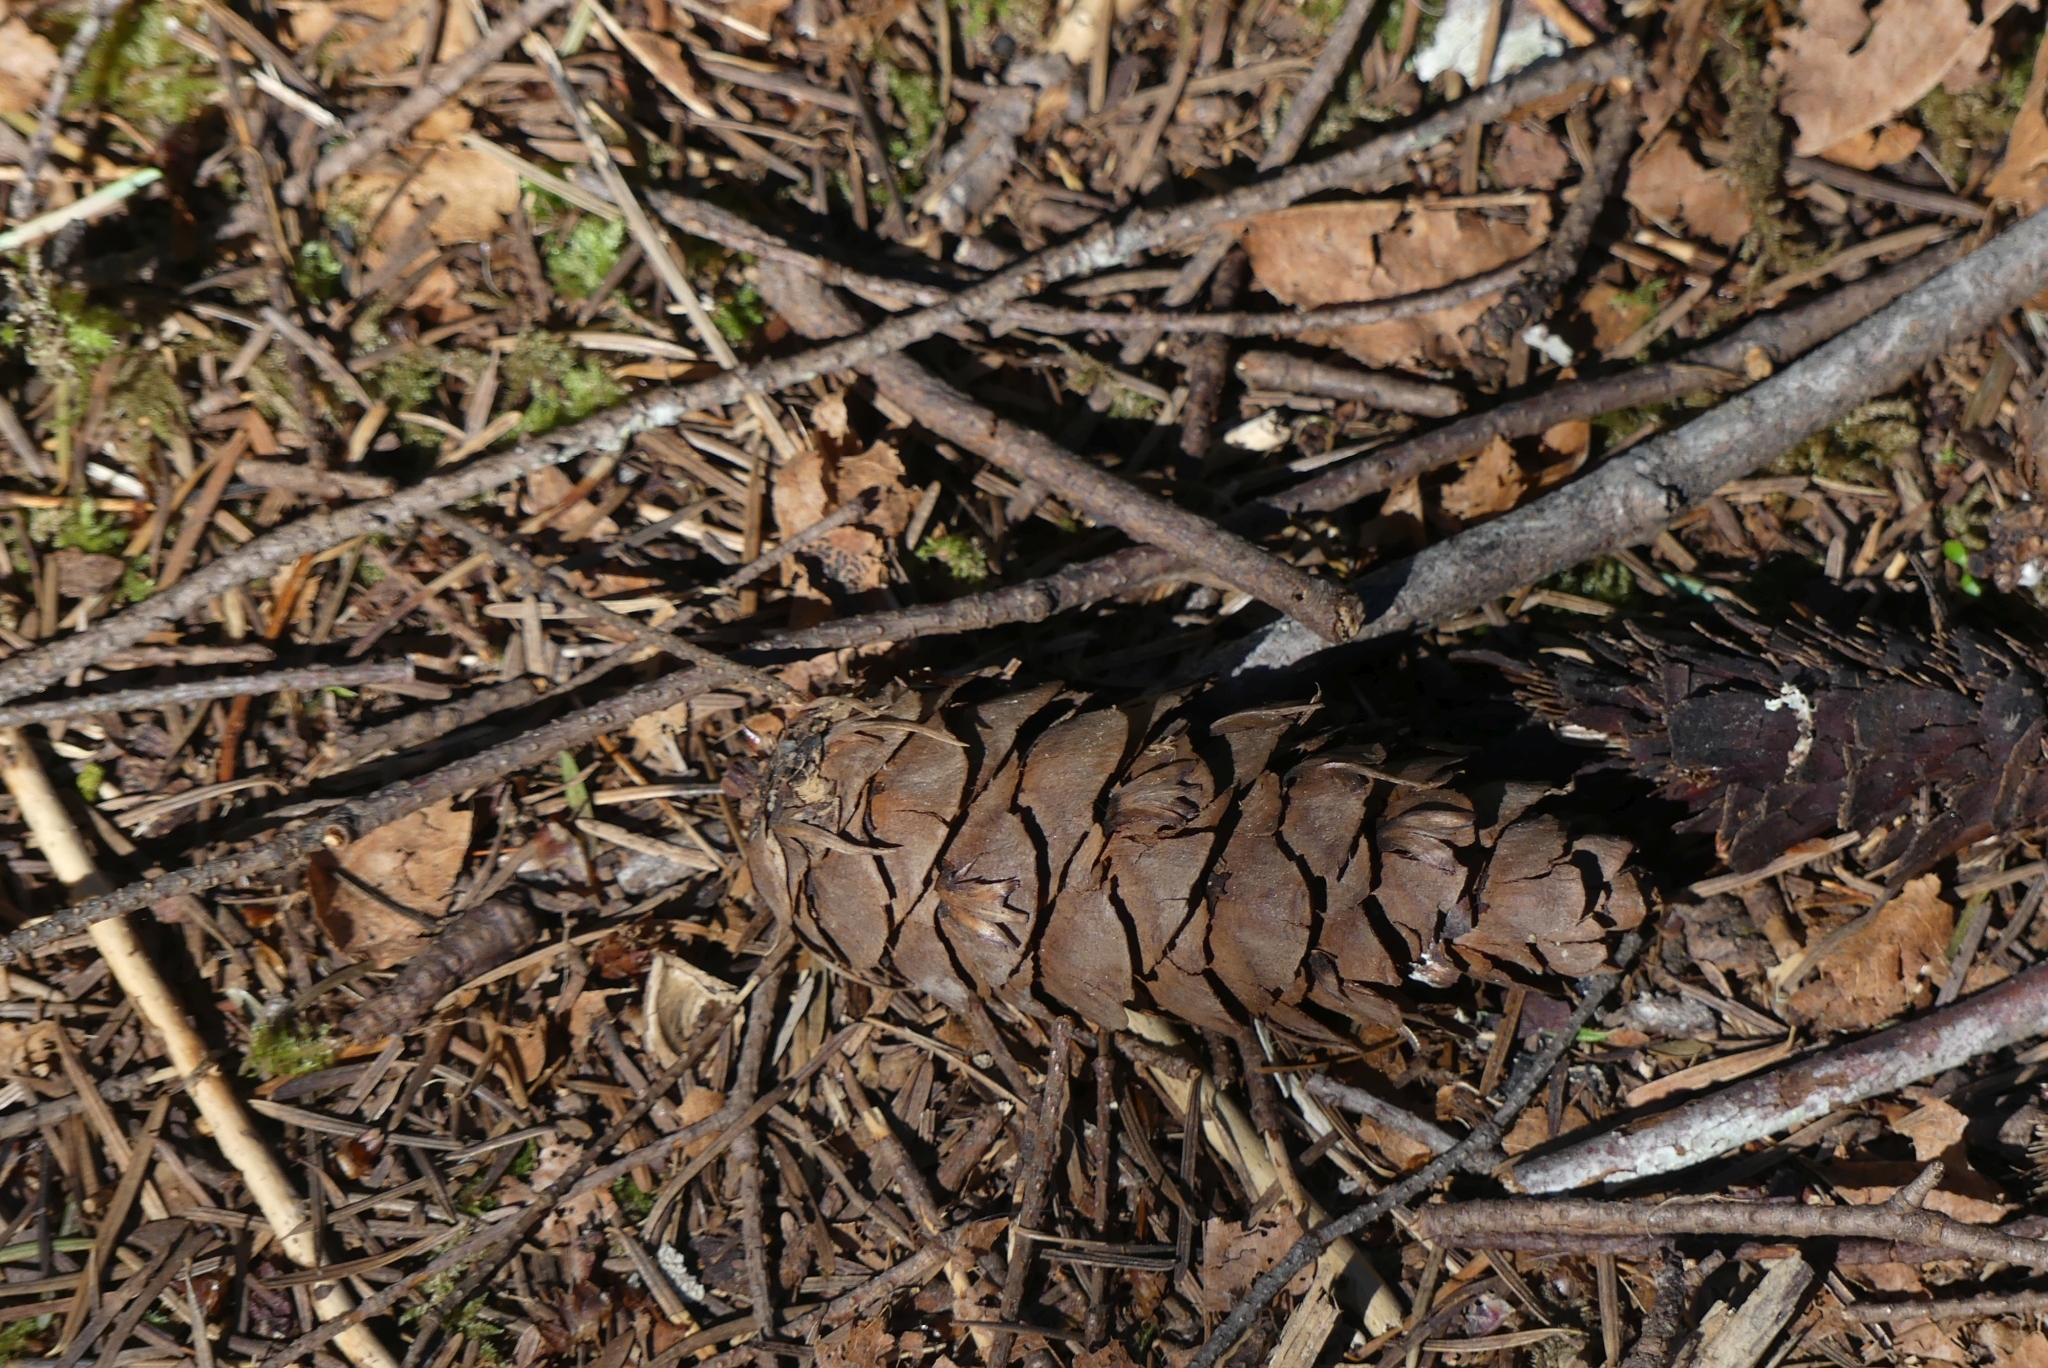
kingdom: Plantae
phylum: Tracheophyta
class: Pinopsida
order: Pinales
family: Pinaceae
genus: Pseudotsuga
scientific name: Pseudotsuga menziesii
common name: Douglas fir
